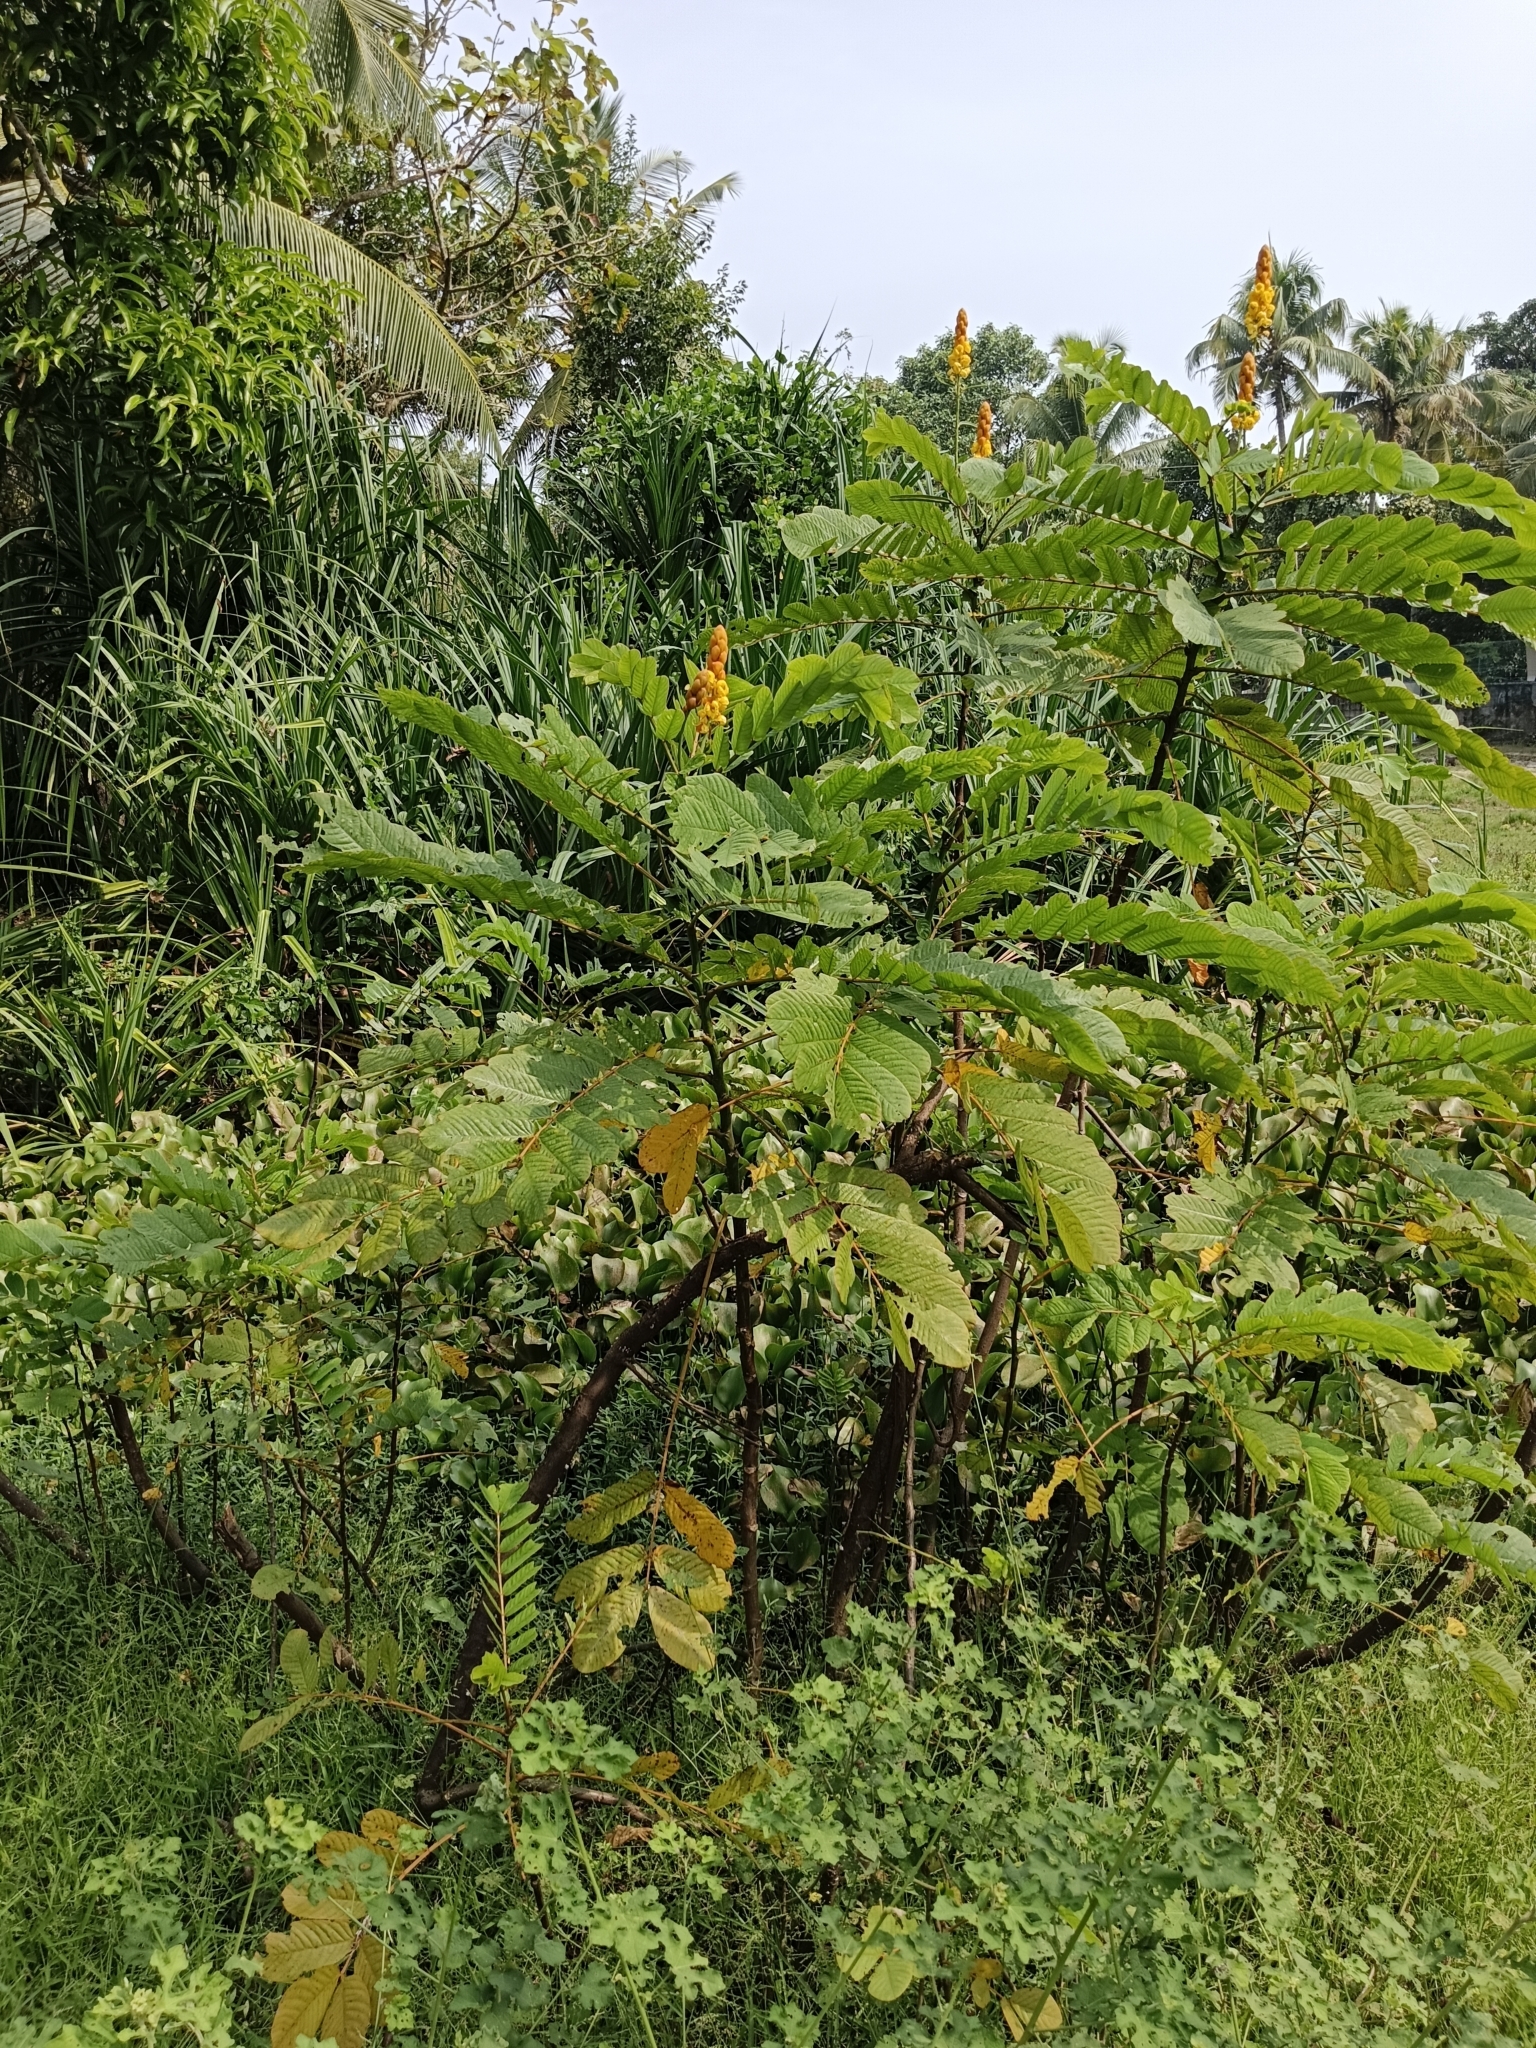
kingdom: Plantae
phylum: Tracheophyta
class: Magnoliopsida
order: Fabales
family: Fabaceae
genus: Senna
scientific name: Senna alata
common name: Emperor's candlesticks
